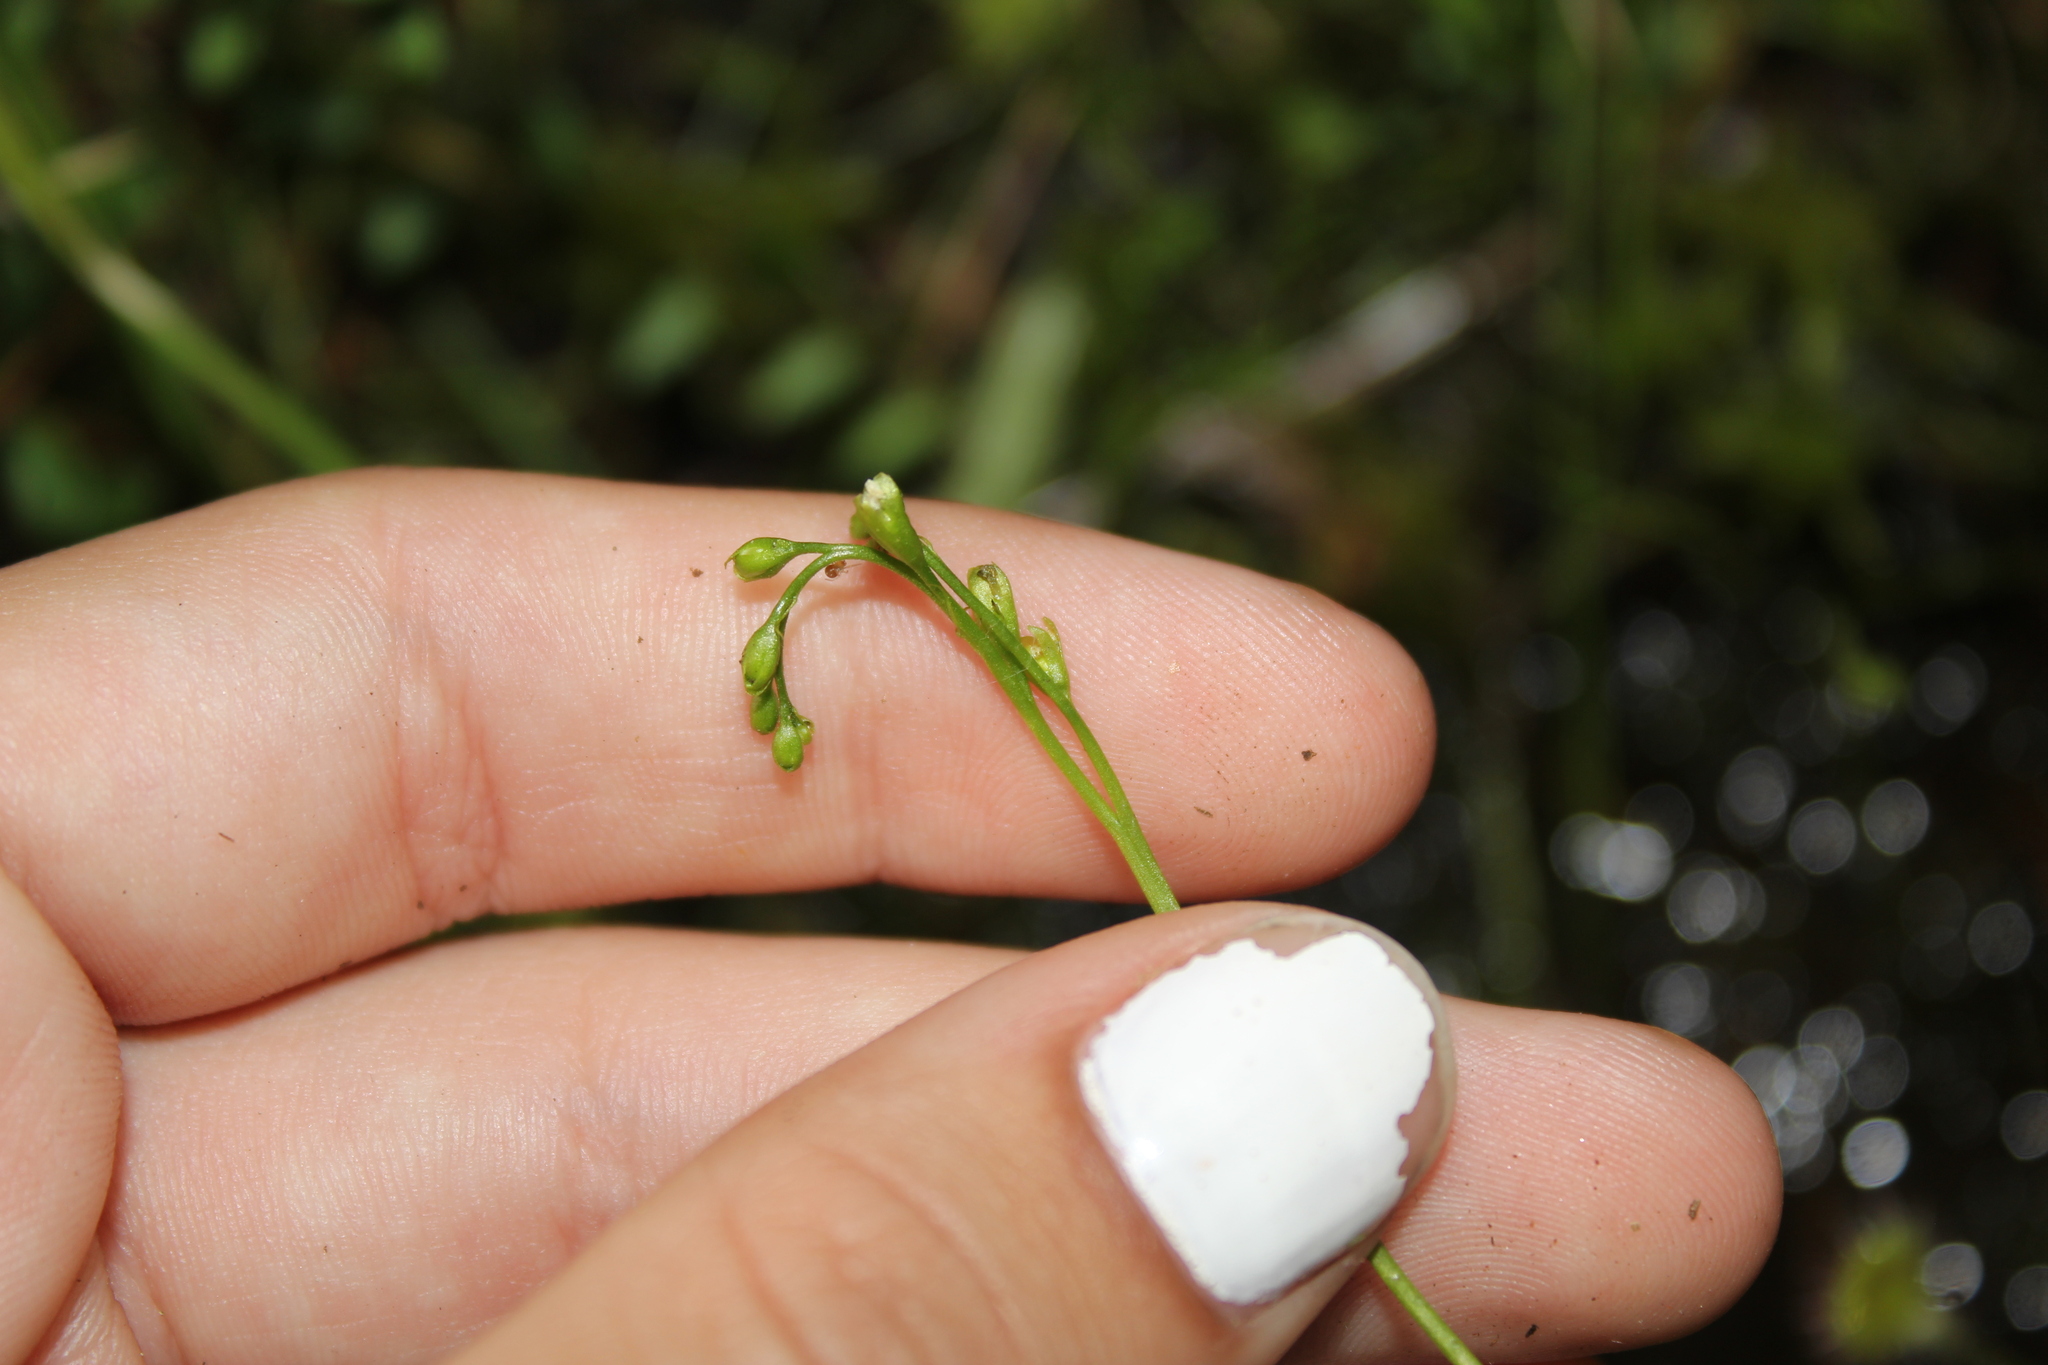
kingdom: Plantae
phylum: Tracheophyta
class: Magnoliopsida
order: Caryophyllales
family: Droseraceae
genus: Drosera
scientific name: Drosera rotundifolia
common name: Round-leaved sundew
